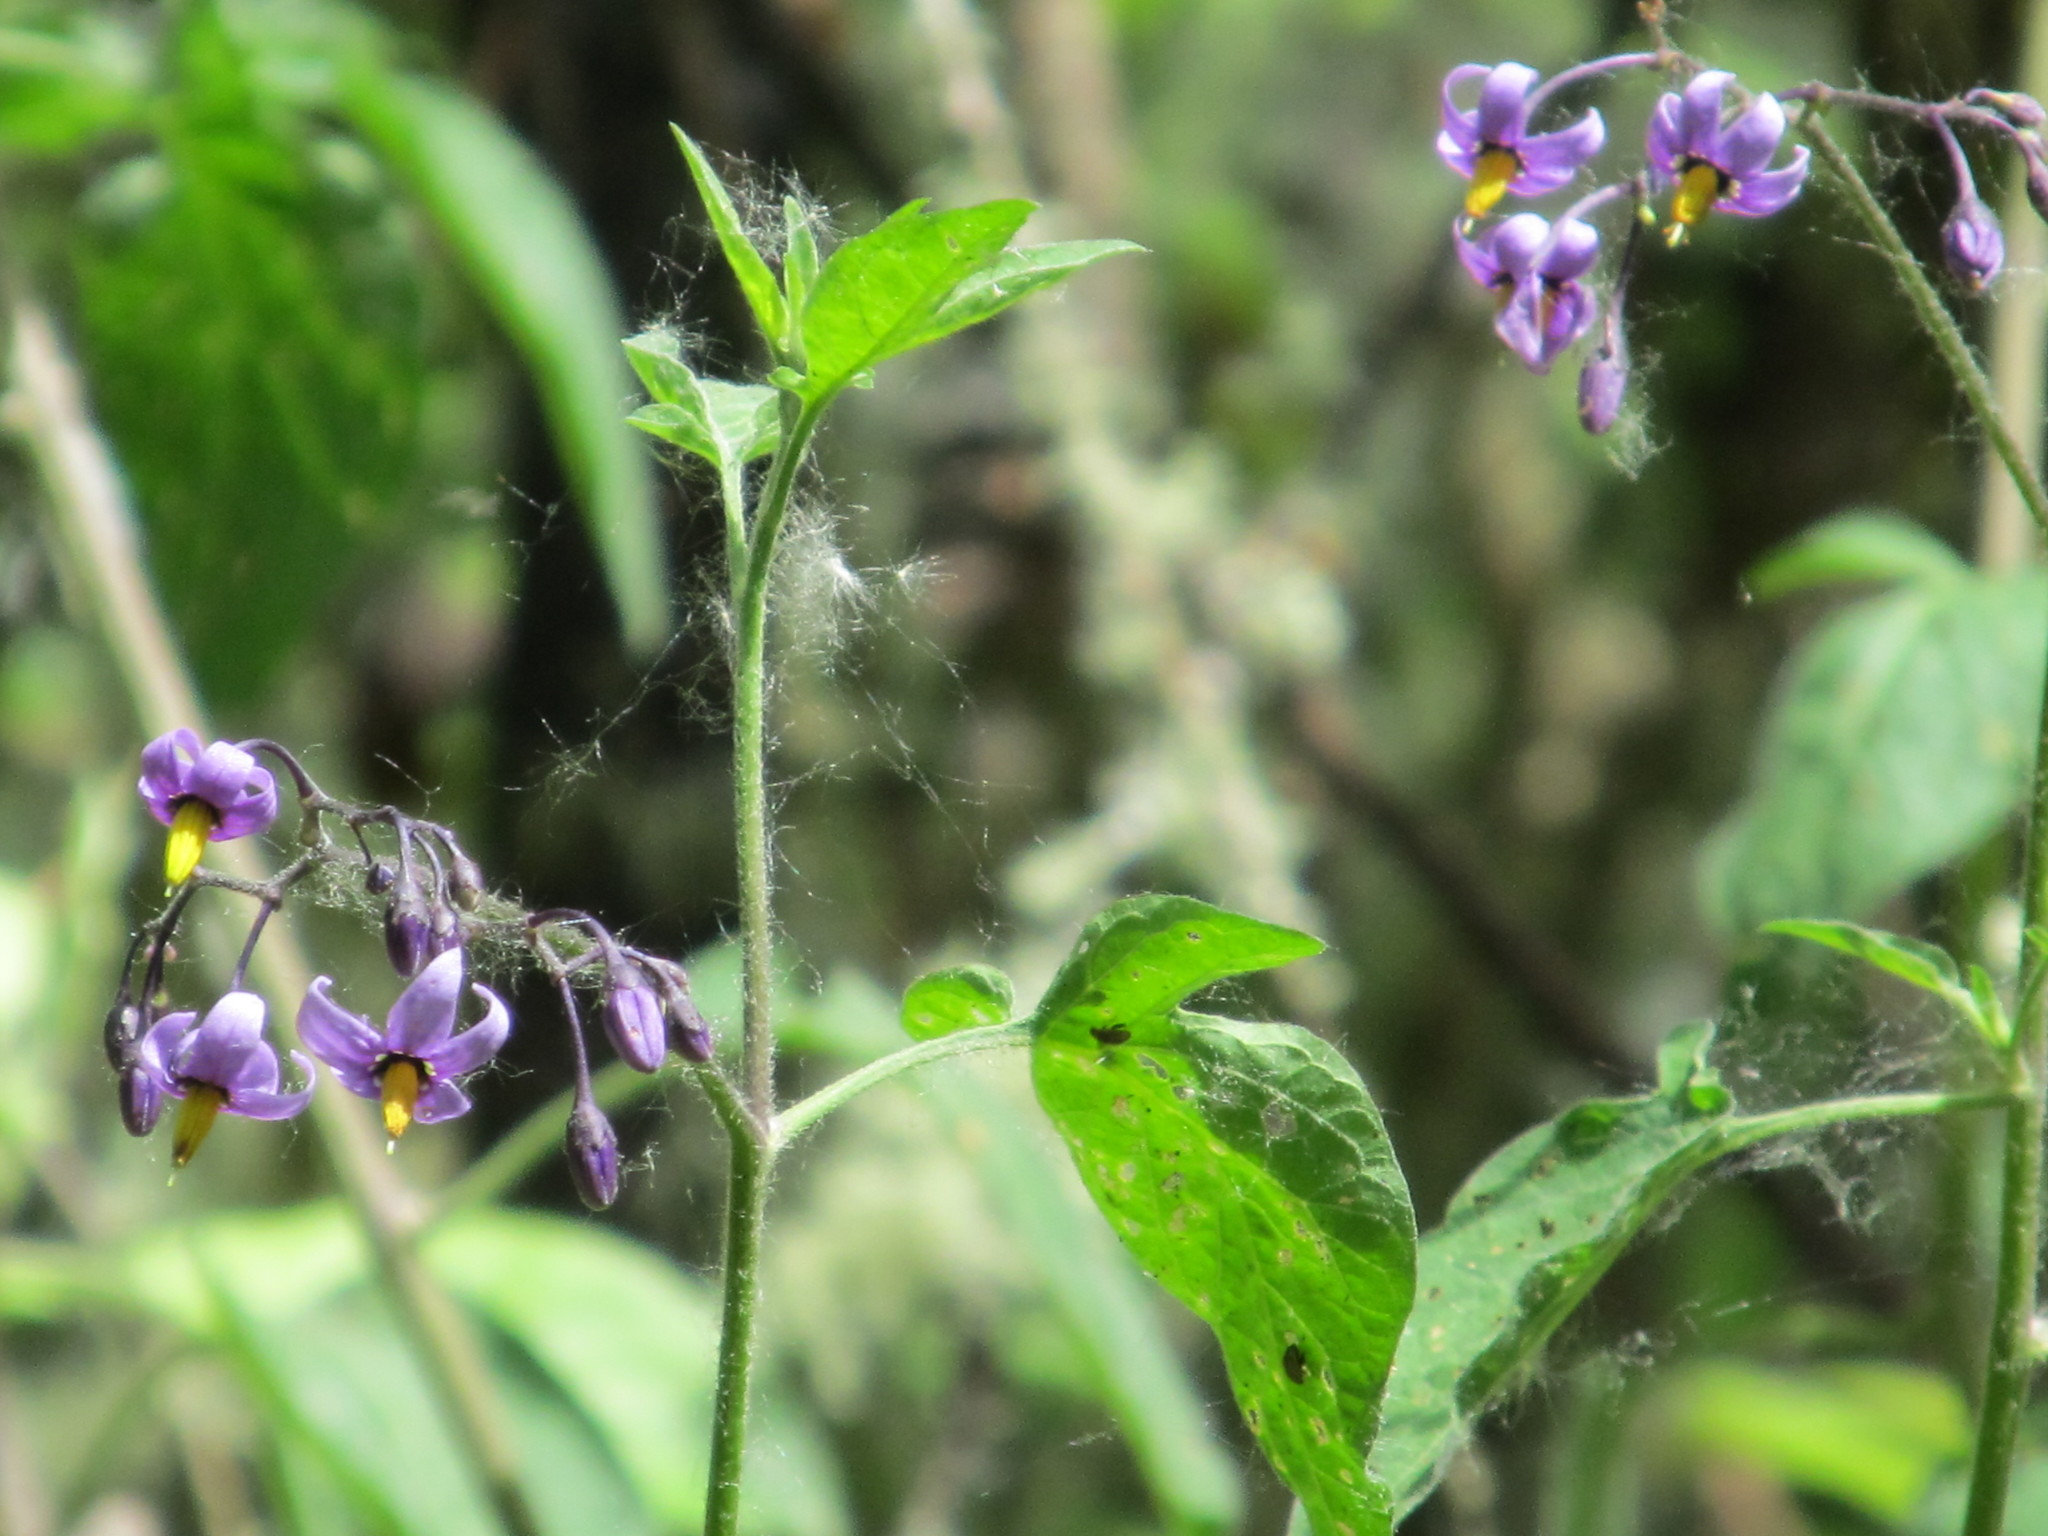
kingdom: Plantae
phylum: Tracheophyta
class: Magnoliopsida
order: Solanales
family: Solanaceae
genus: Solanum
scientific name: Solanum dulcamara
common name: Climbing nightshade
